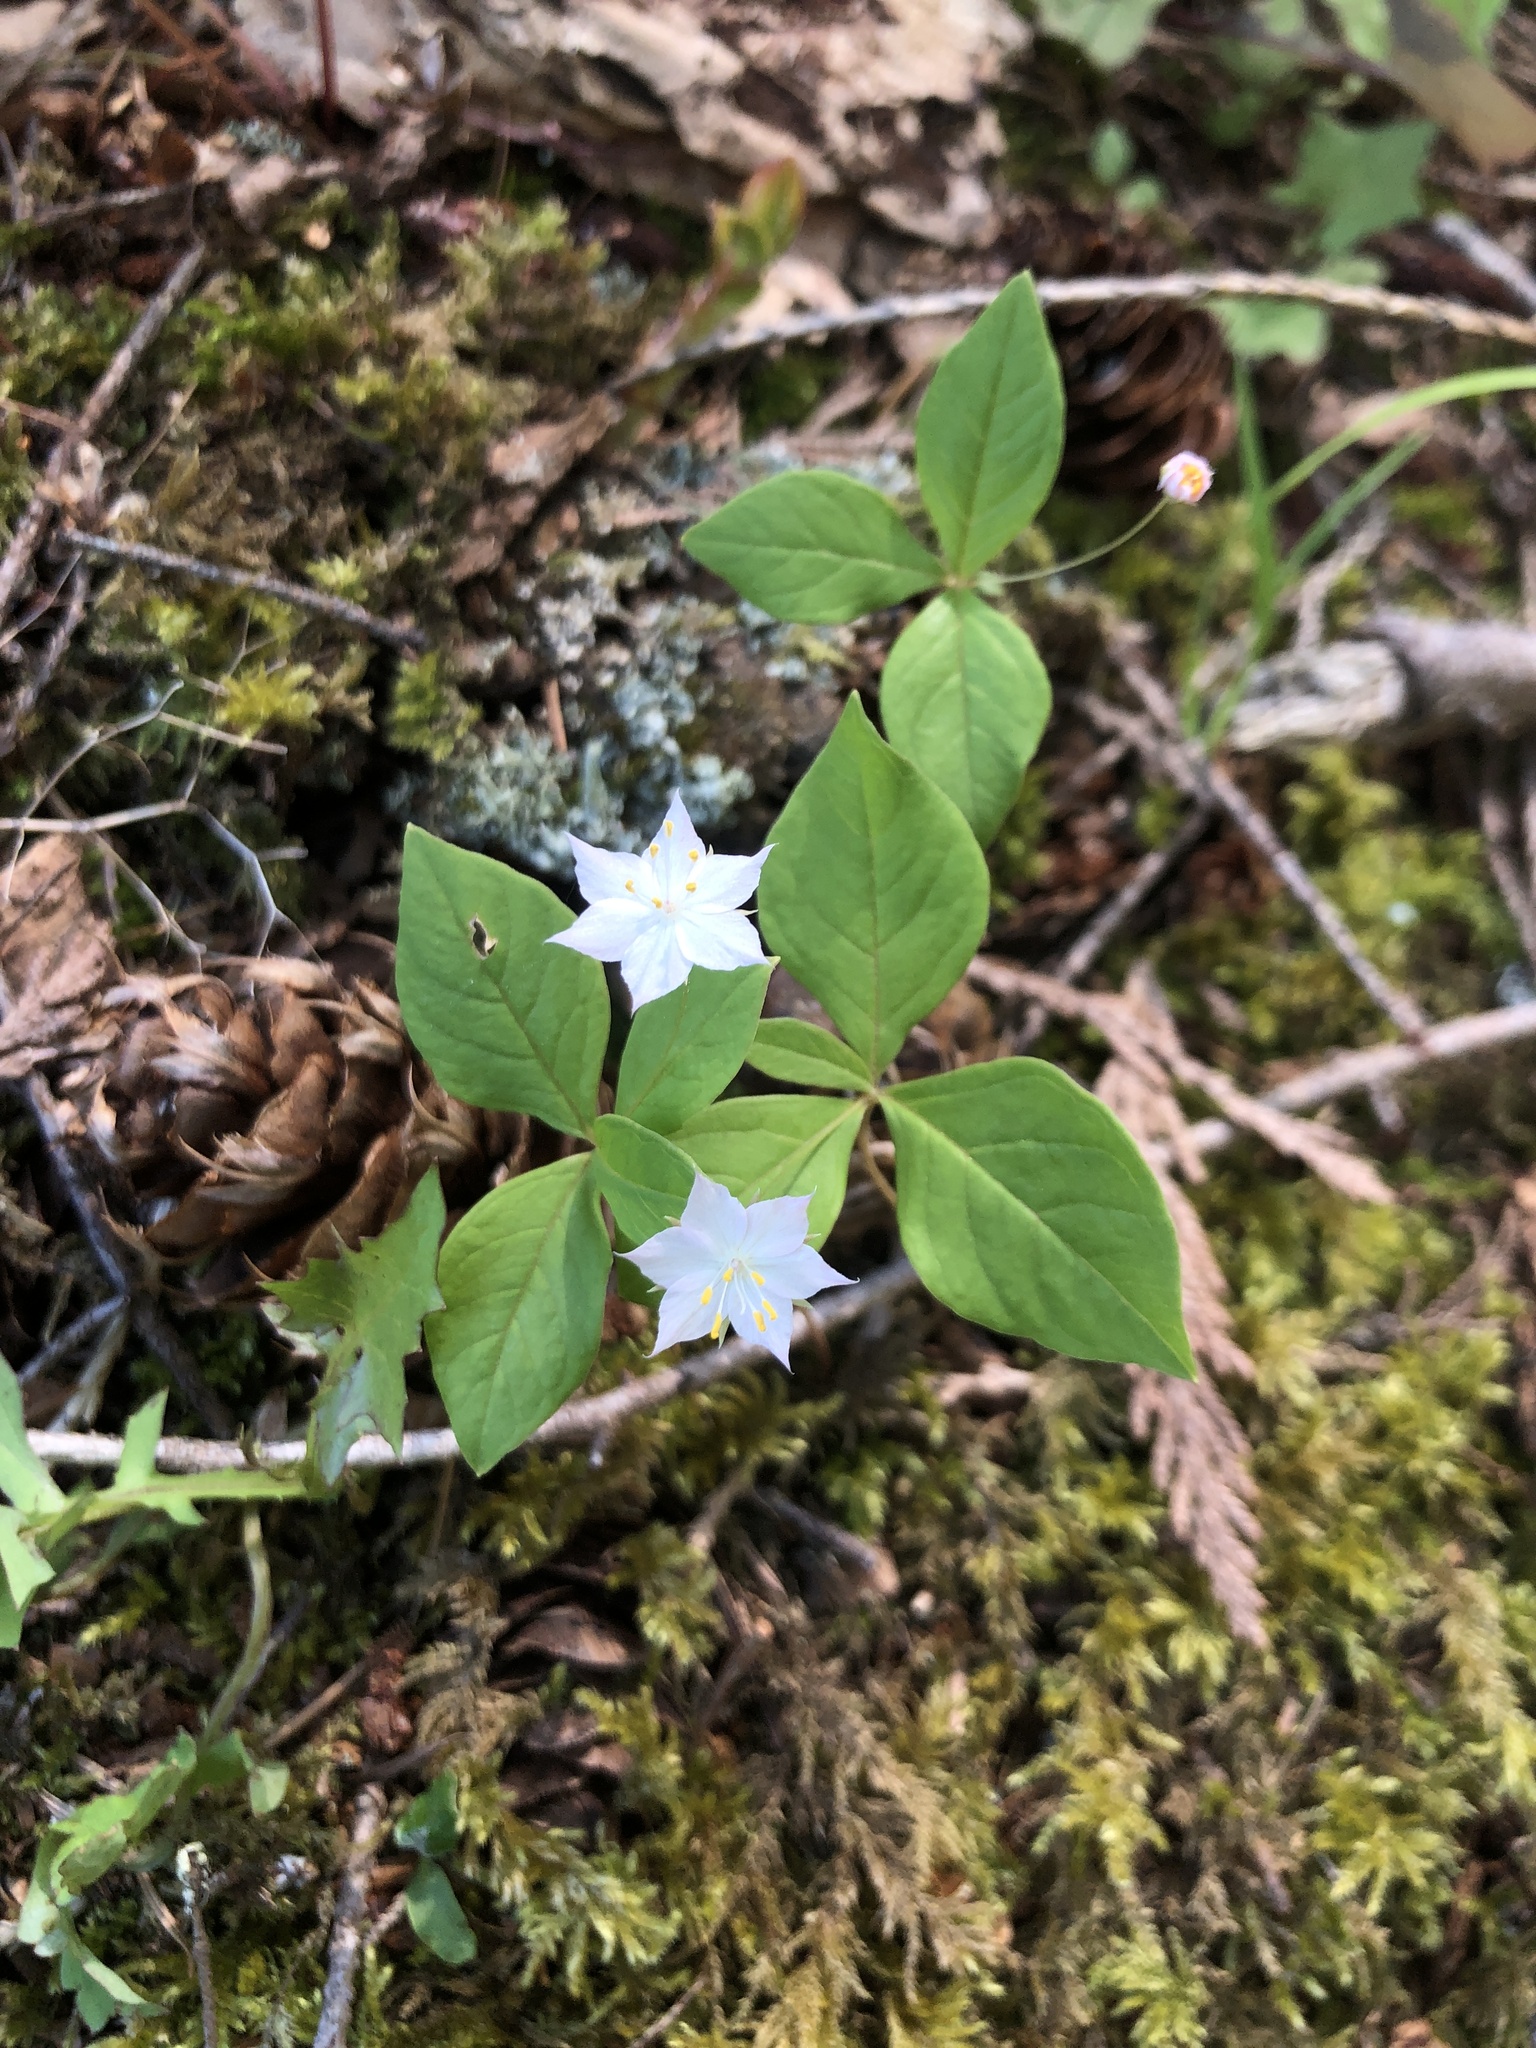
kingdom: Plantae
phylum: Tracheophyta
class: Magnoliopsida
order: Ericales
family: Primulaceae
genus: Lysimachia
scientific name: Lysimachia latifolia
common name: Pacific starflower
